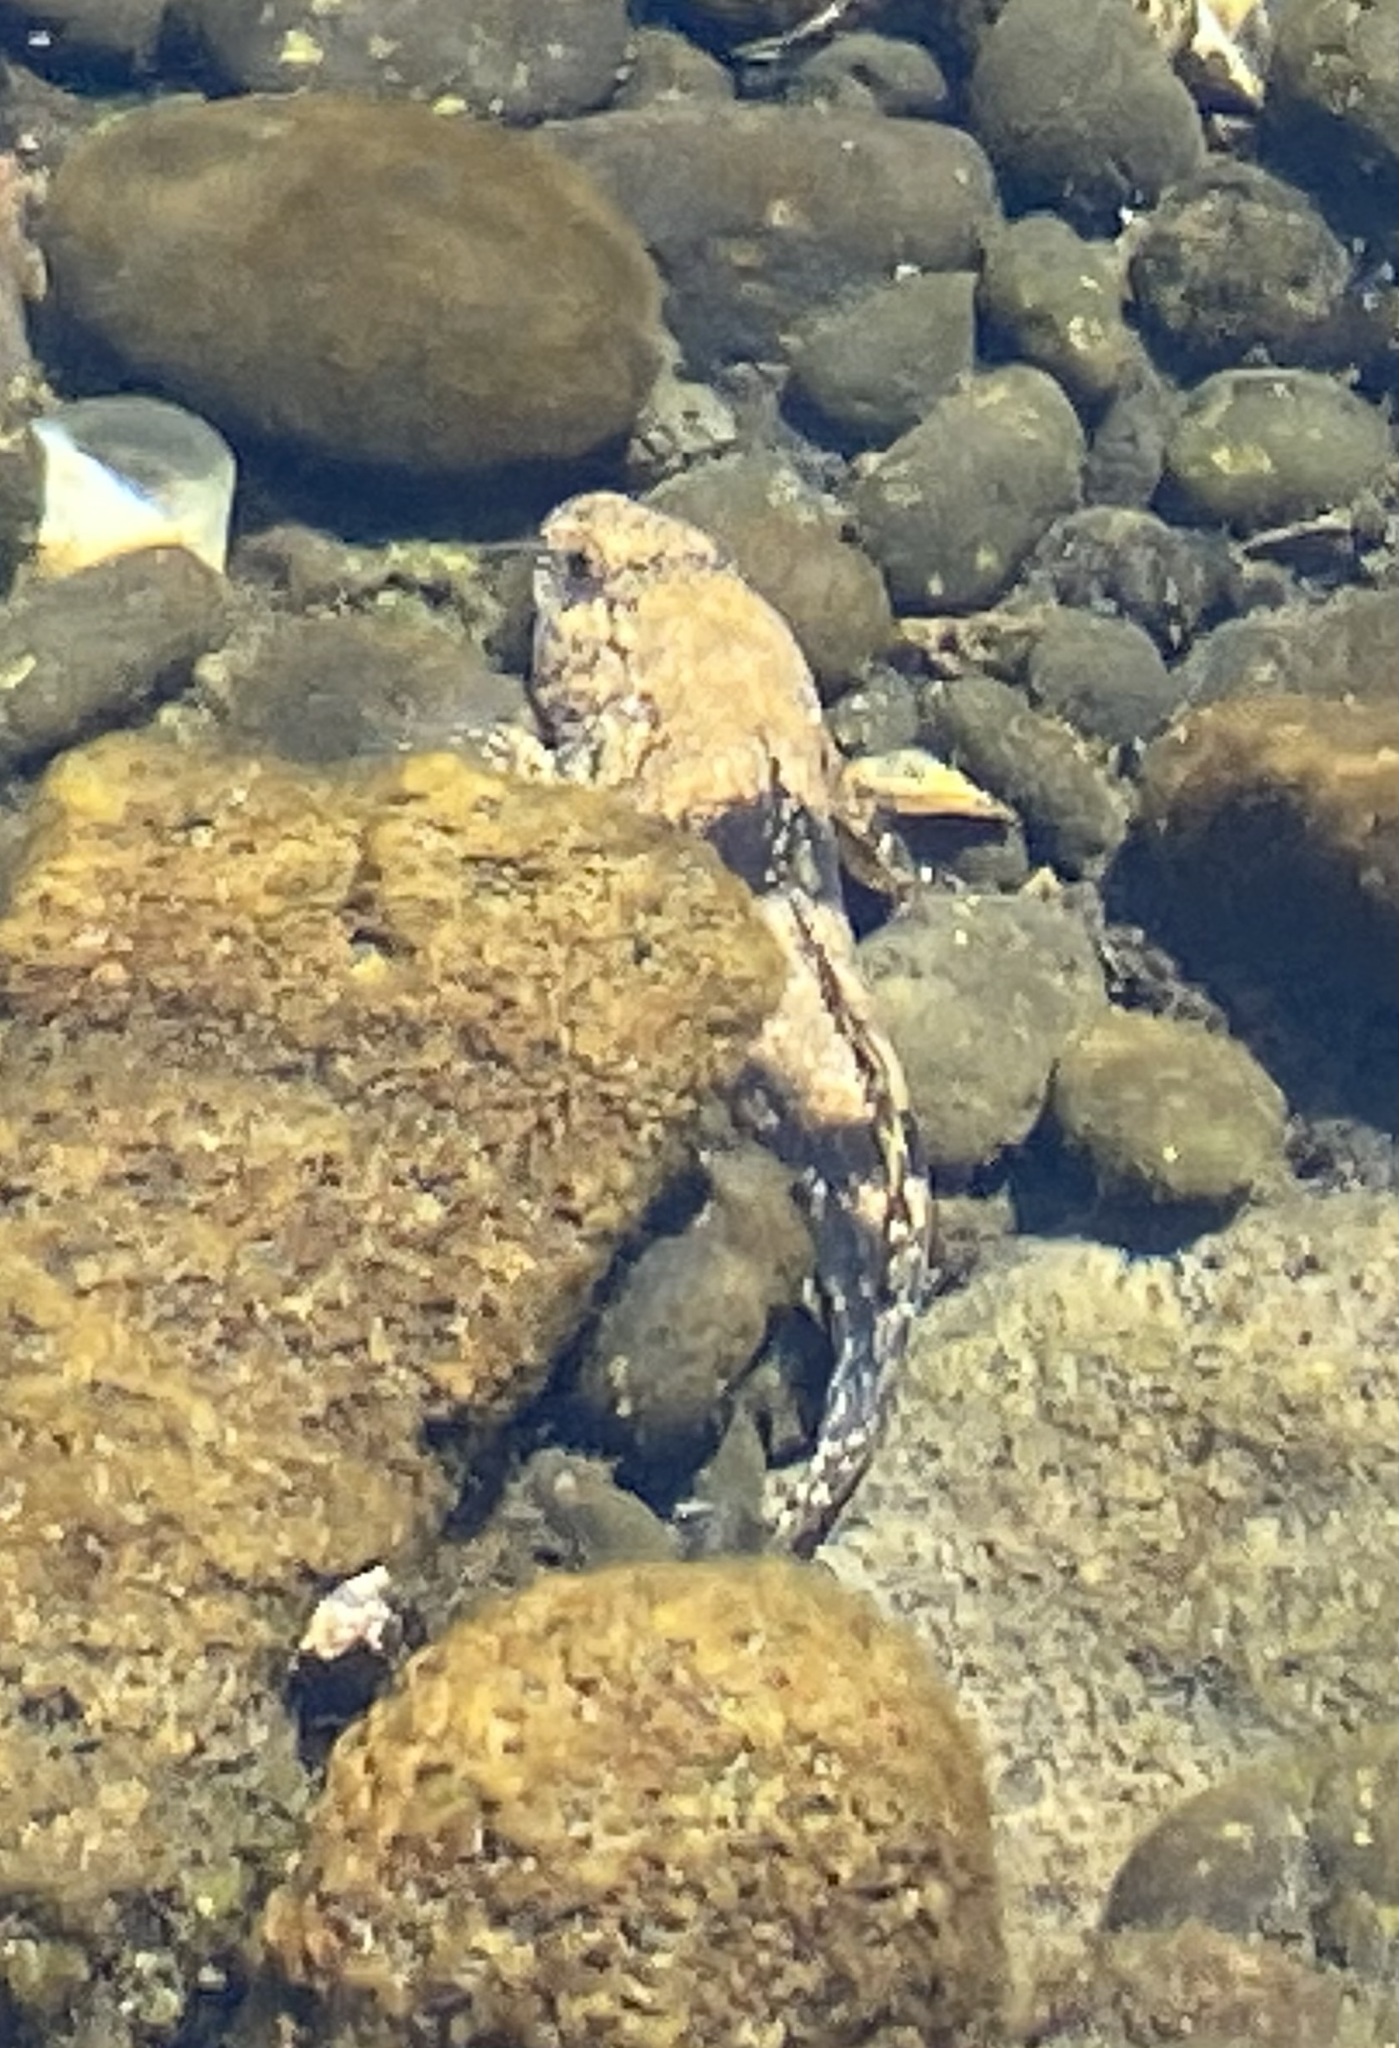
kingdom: Animalia
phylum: Chordata
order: Perciformes
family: Gobiidae
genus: Bathygobius
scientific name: Bathygobius
